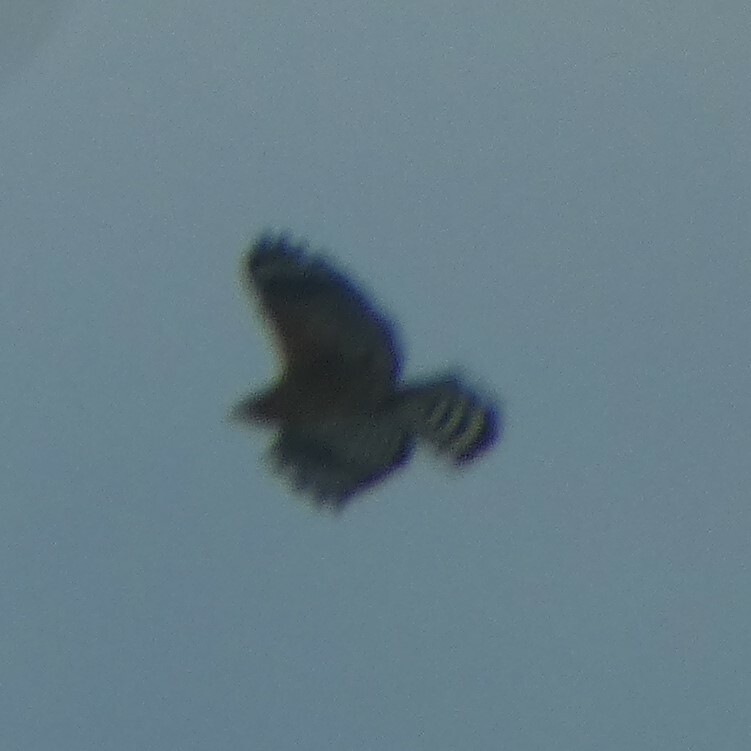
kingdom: Animalia
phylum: Chordata
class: Aves
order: Accipitriformes
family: Accipitridae
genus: Buteo
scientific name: Buteo lineatus
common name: Red-shouldered hawk
